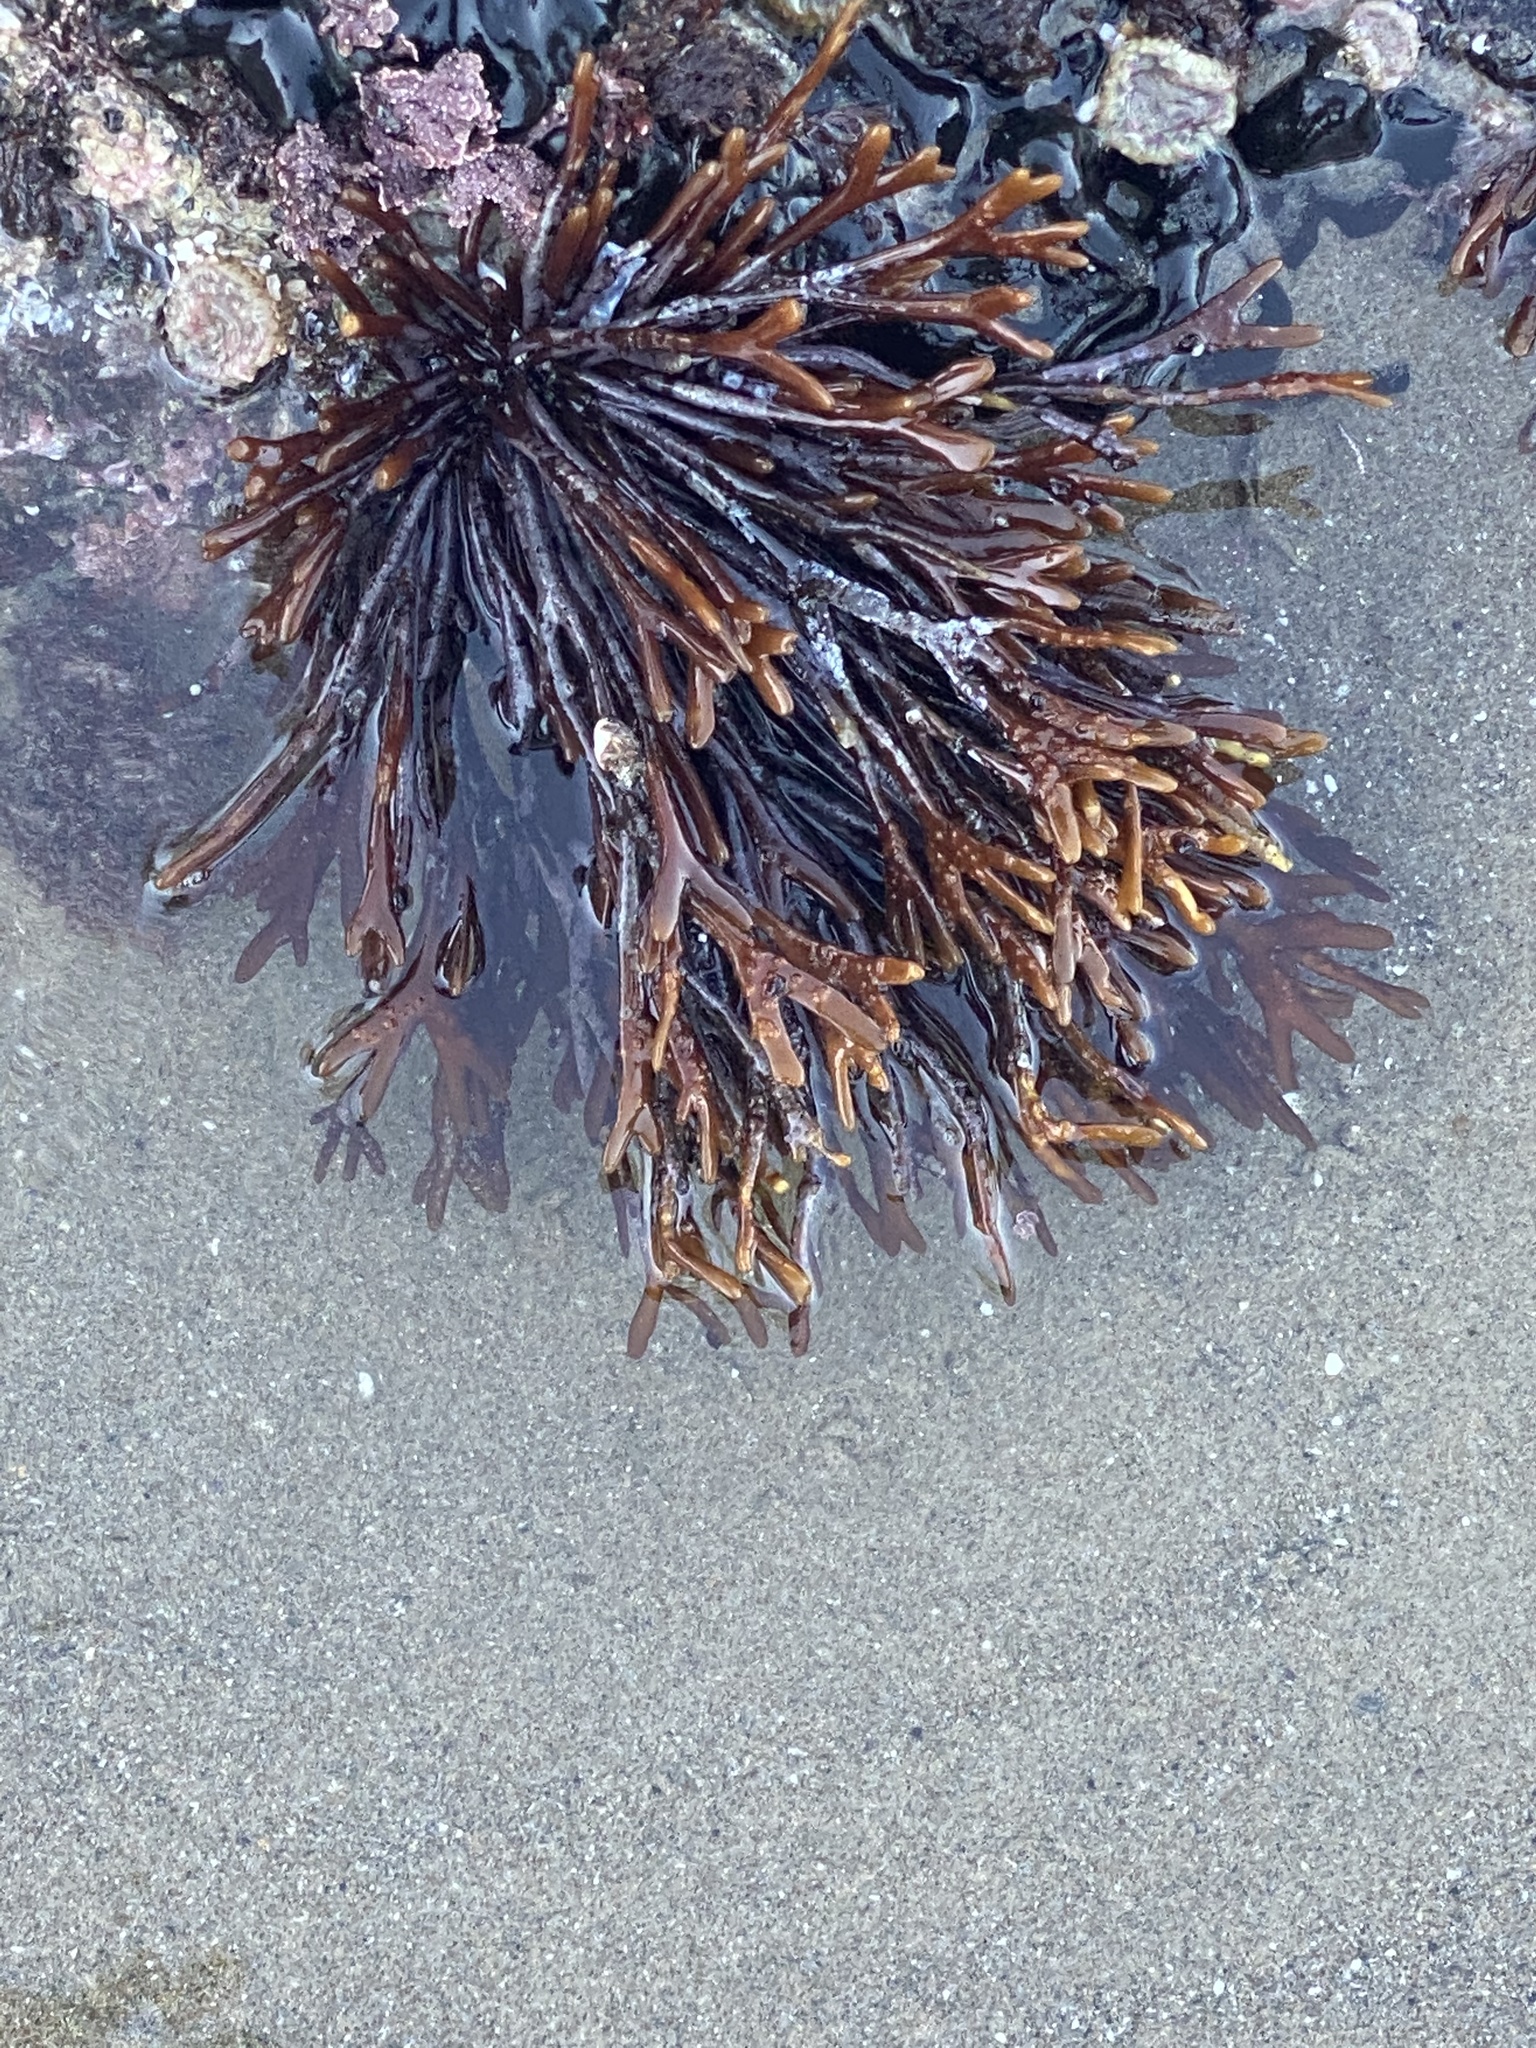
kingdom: Plantae
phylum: Rhodophyta
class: Florideophyceae
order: Gigartinales
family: Phyllophoraceae
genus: Ahnfeltiopsis
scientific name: Ahnfeltiopsis linearis
